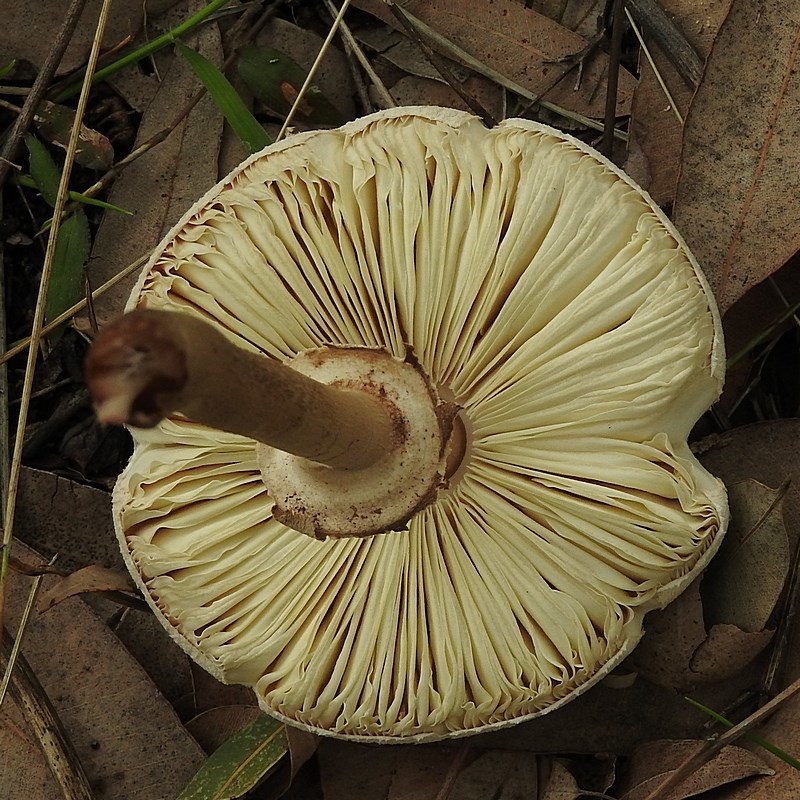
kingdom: Fungi
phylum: Basidiomycota
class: Agaricomycetes
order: Agaricales
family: Agaricaceae
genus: Macrolepiota
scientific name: Macrolepiota clelandii
